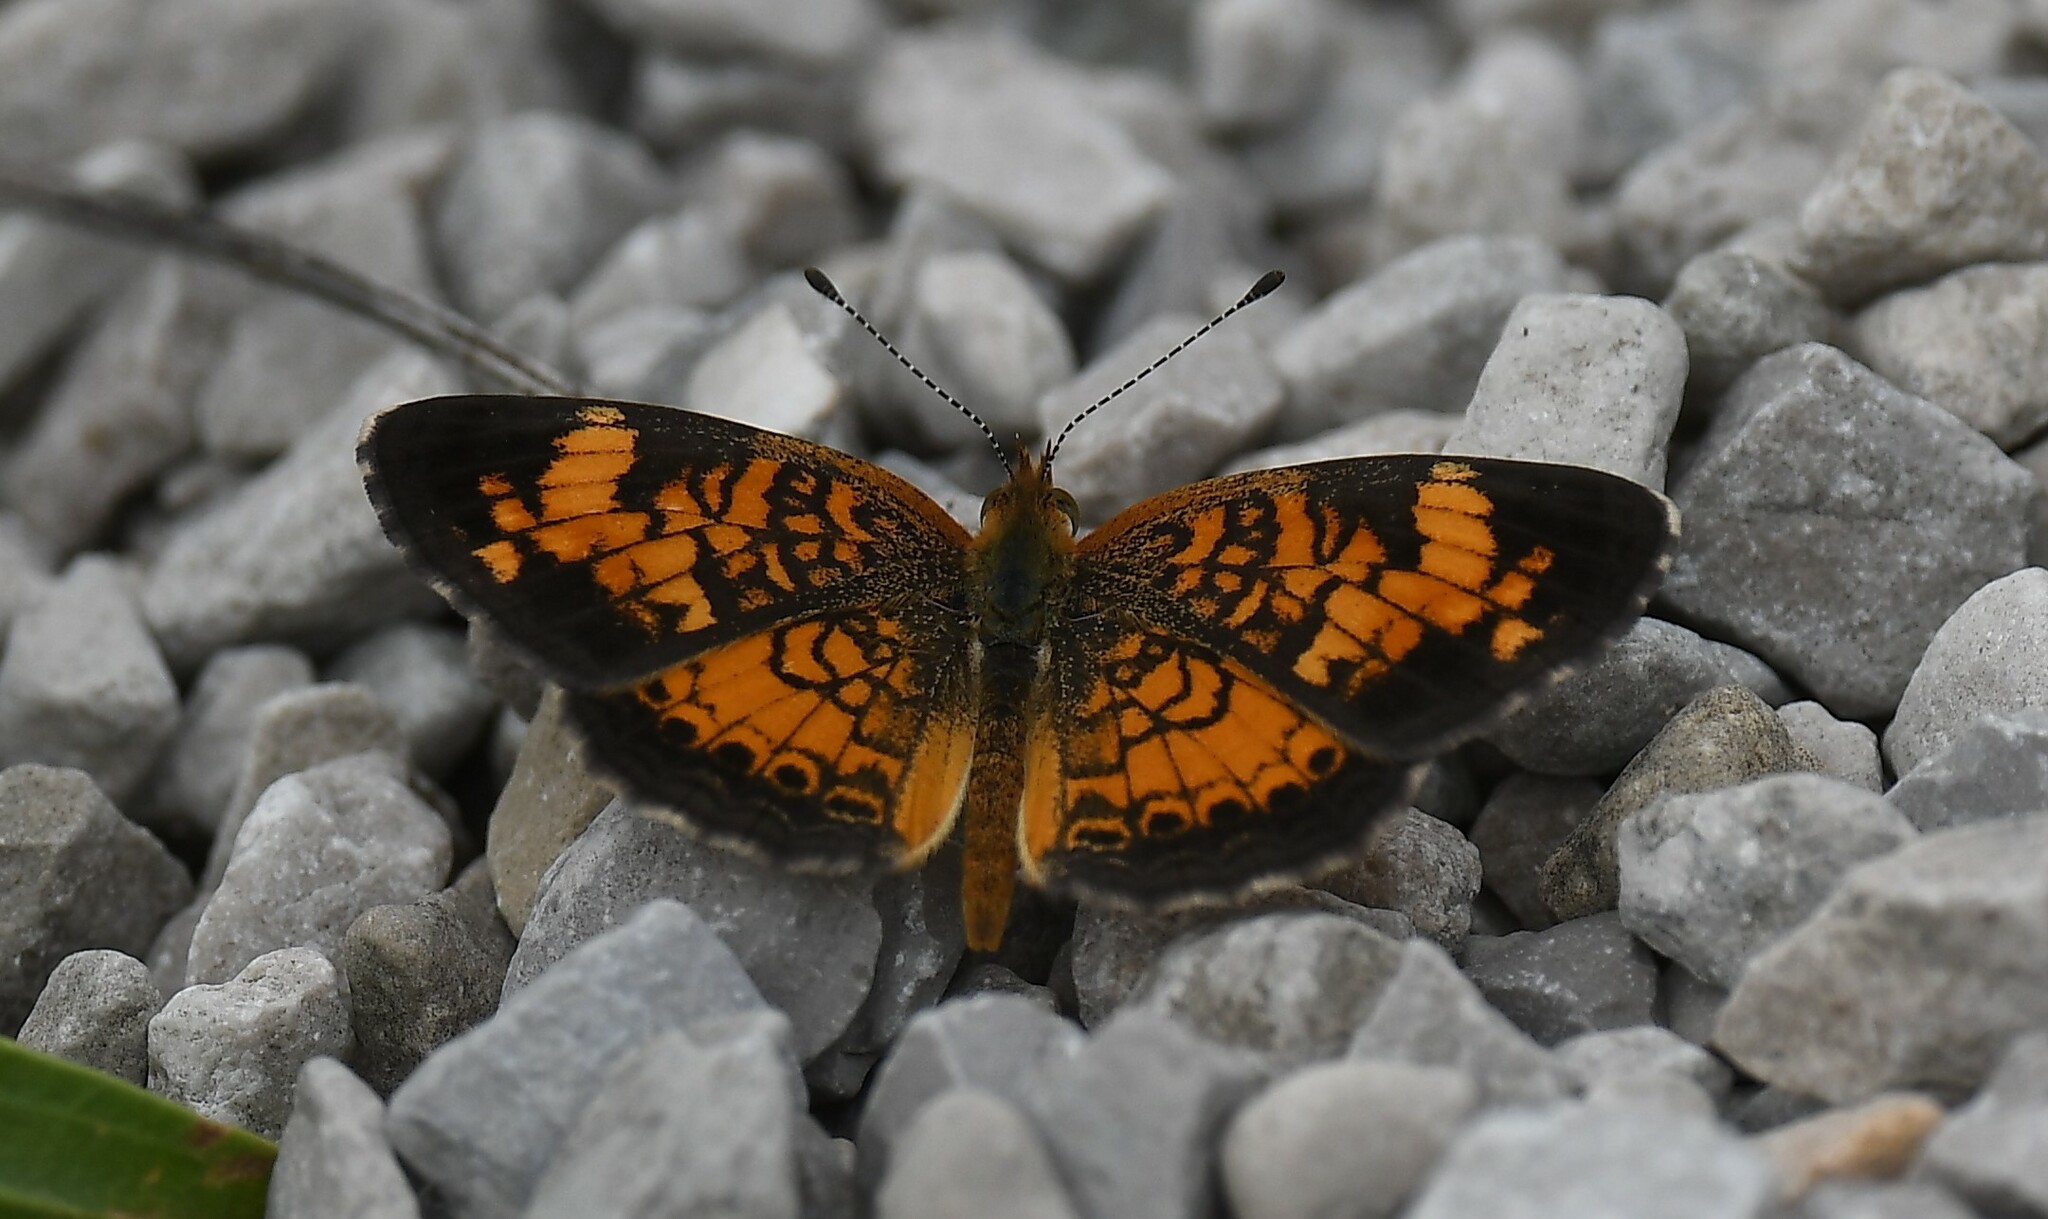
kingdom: Animalia
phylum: Arthropoda
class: Insecta
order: Lepidoptera
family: Nymphalidae
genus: Phyciodes
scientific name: Phyciodes tharos
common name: Pearl crescent
